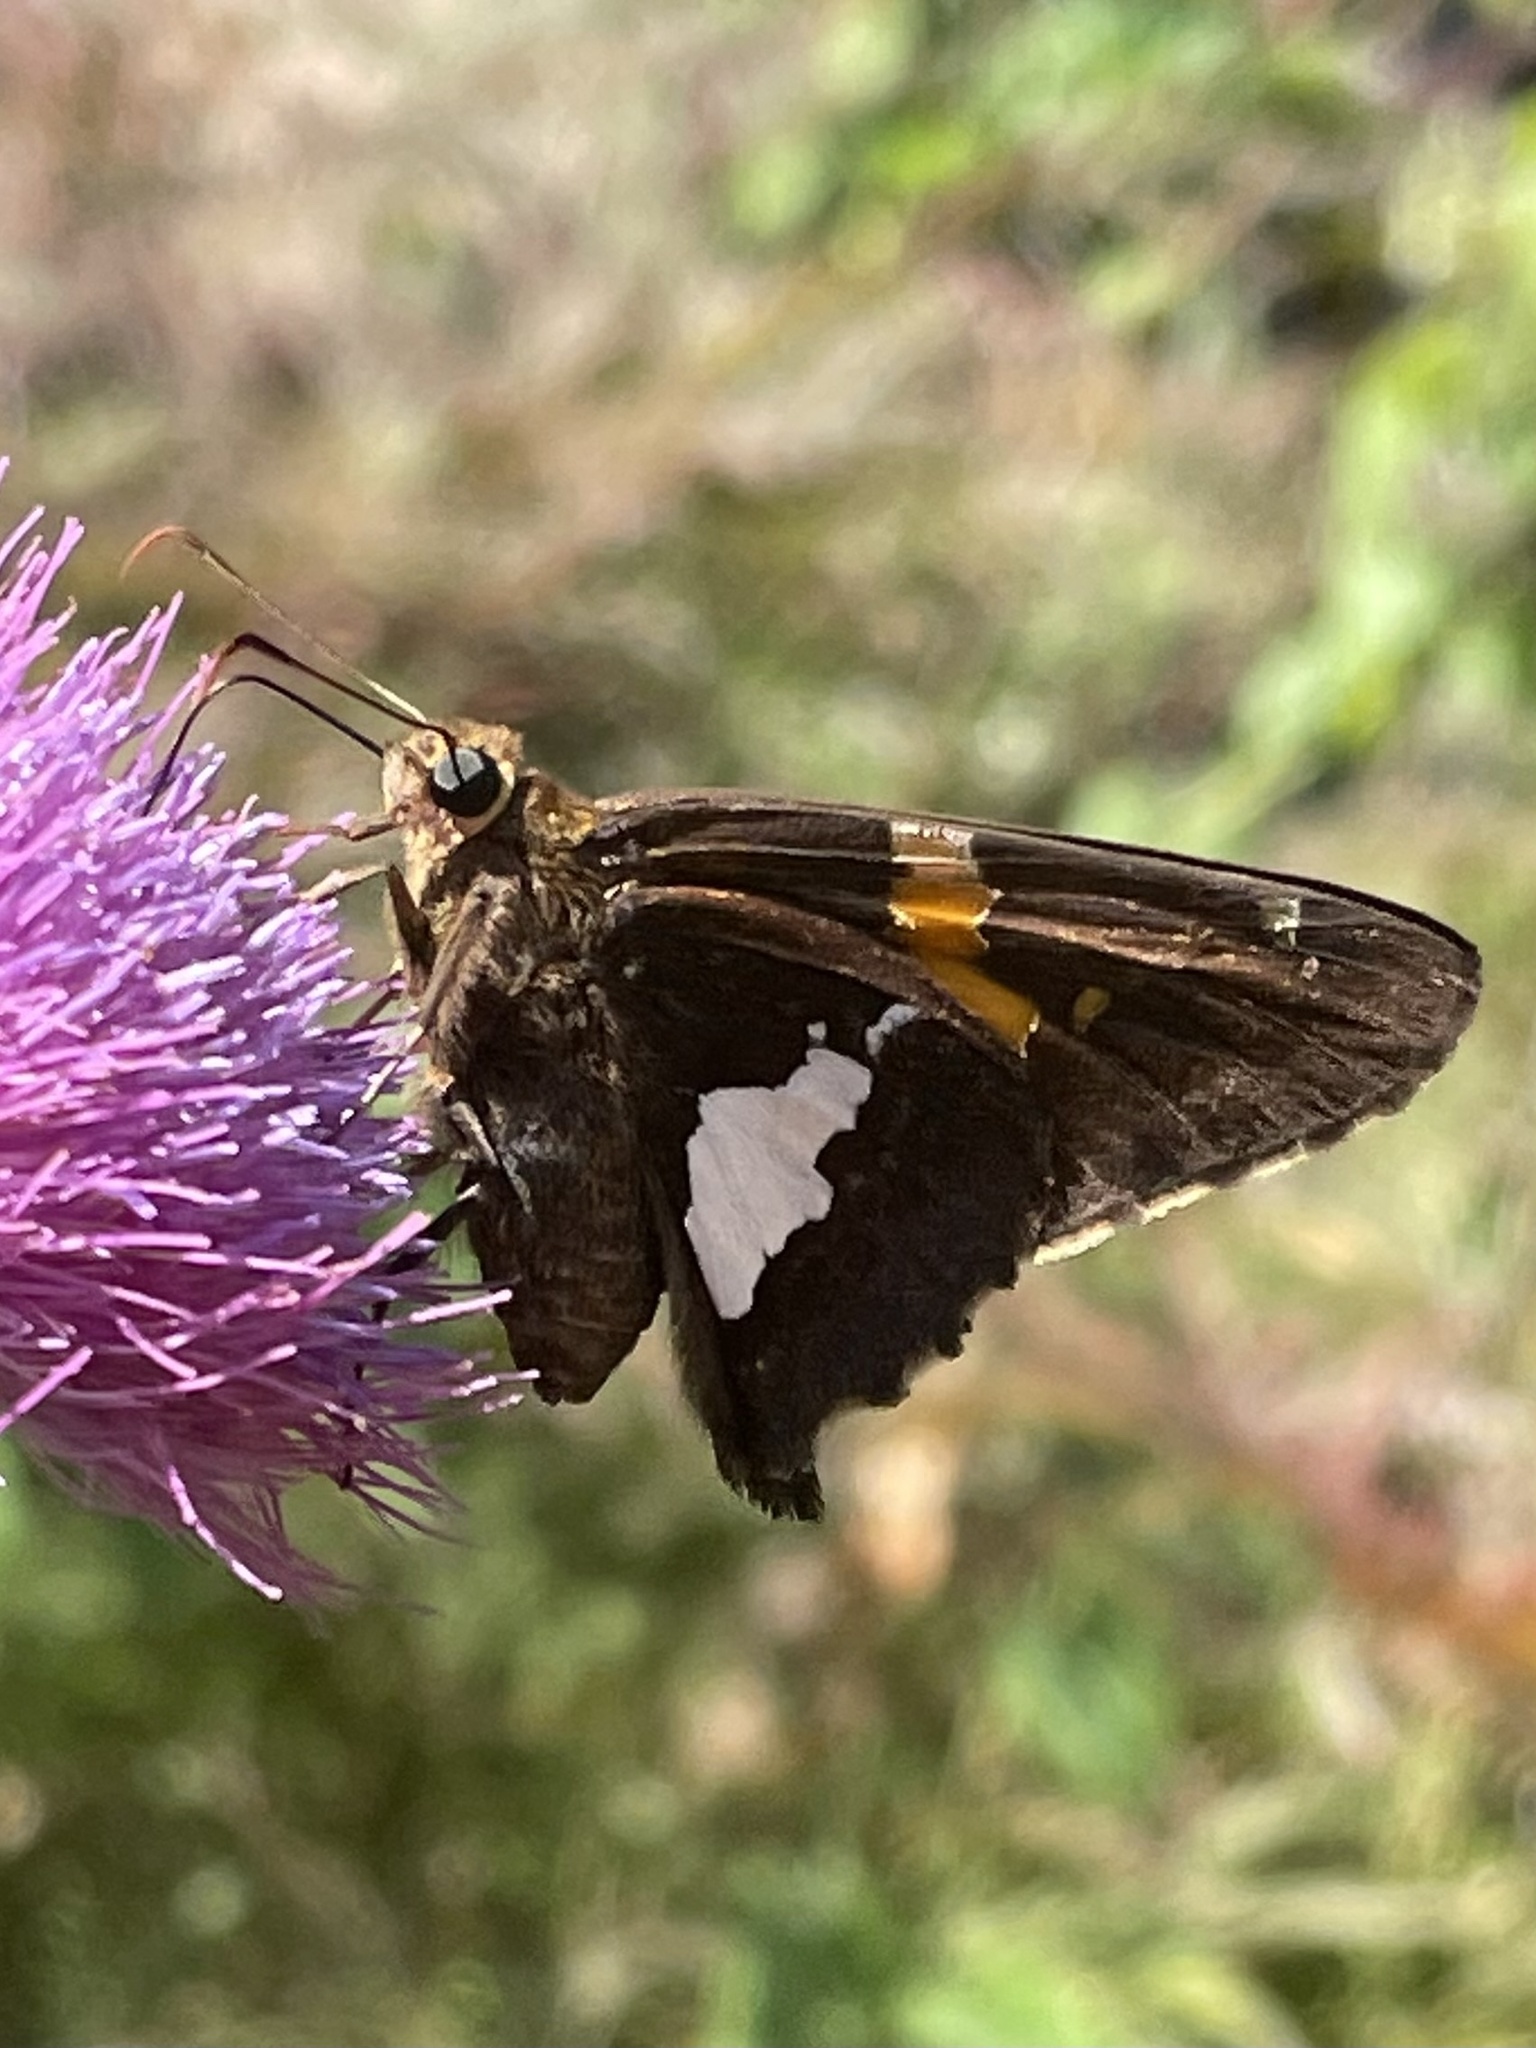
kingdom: Animalia
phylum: Arthropoda
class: Insecta
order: Lepidoptera
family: Hesperiidae
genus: Epargyreus
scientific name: Epargyreus clarus
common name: Silver-spotted skipper
